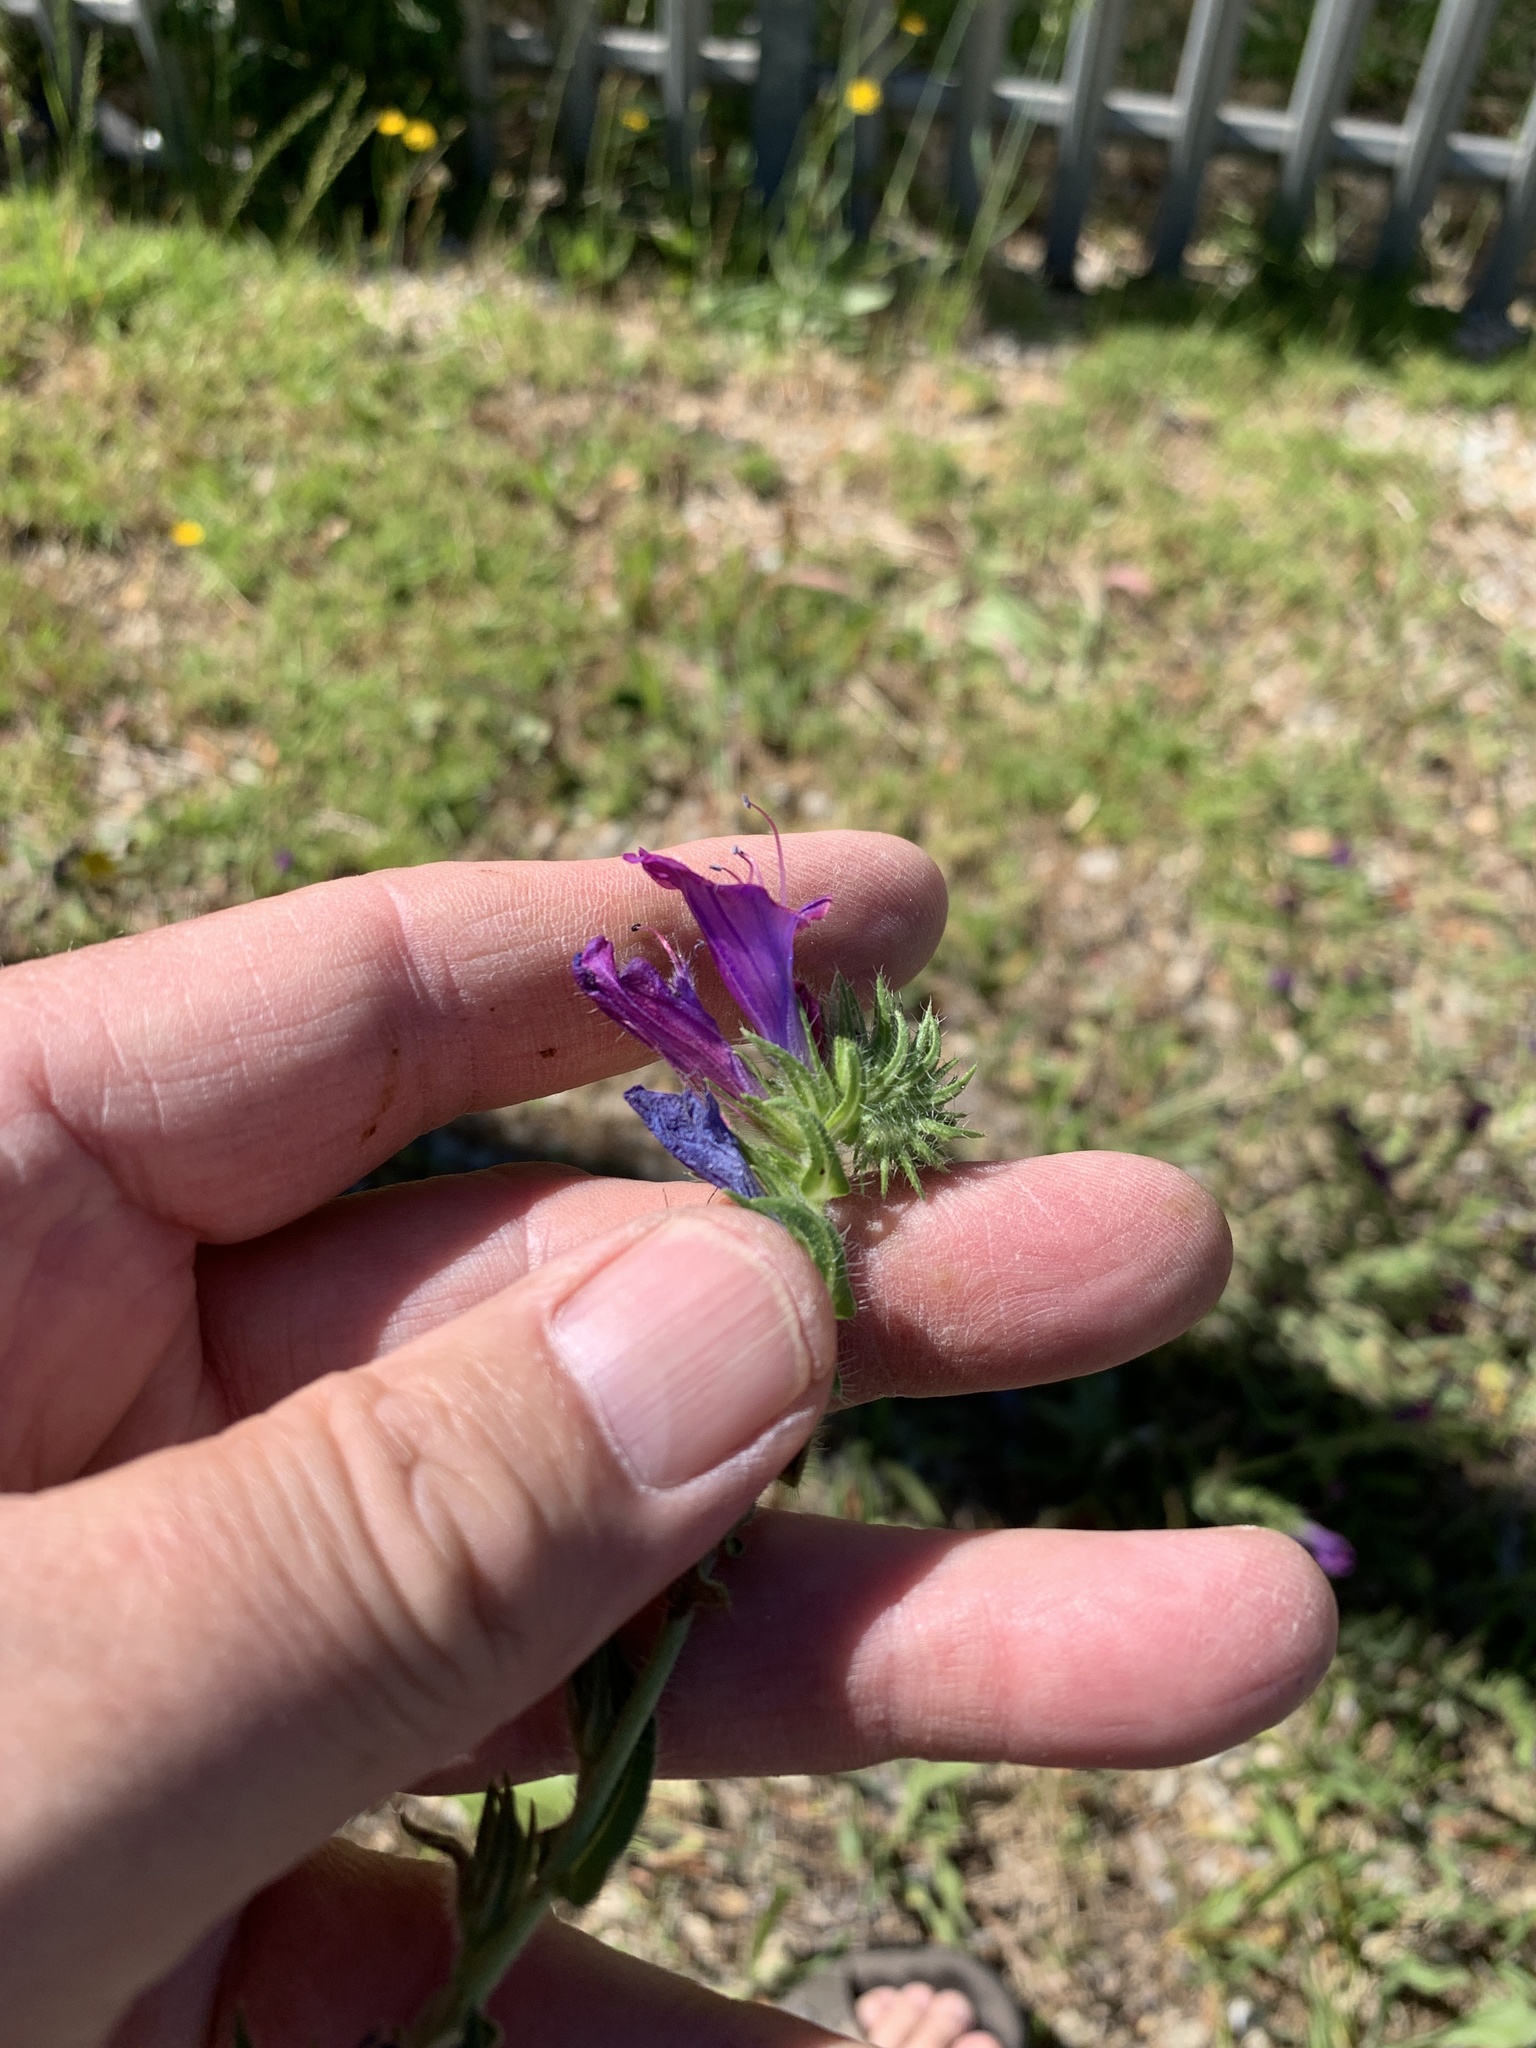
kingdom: Plantae
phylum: Tracheophyta
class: Magnoliopsida
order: Boraginales
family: Boraginaceae
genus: Echium
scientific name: Echium plantagineum
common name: Purple viper's-bugloss
